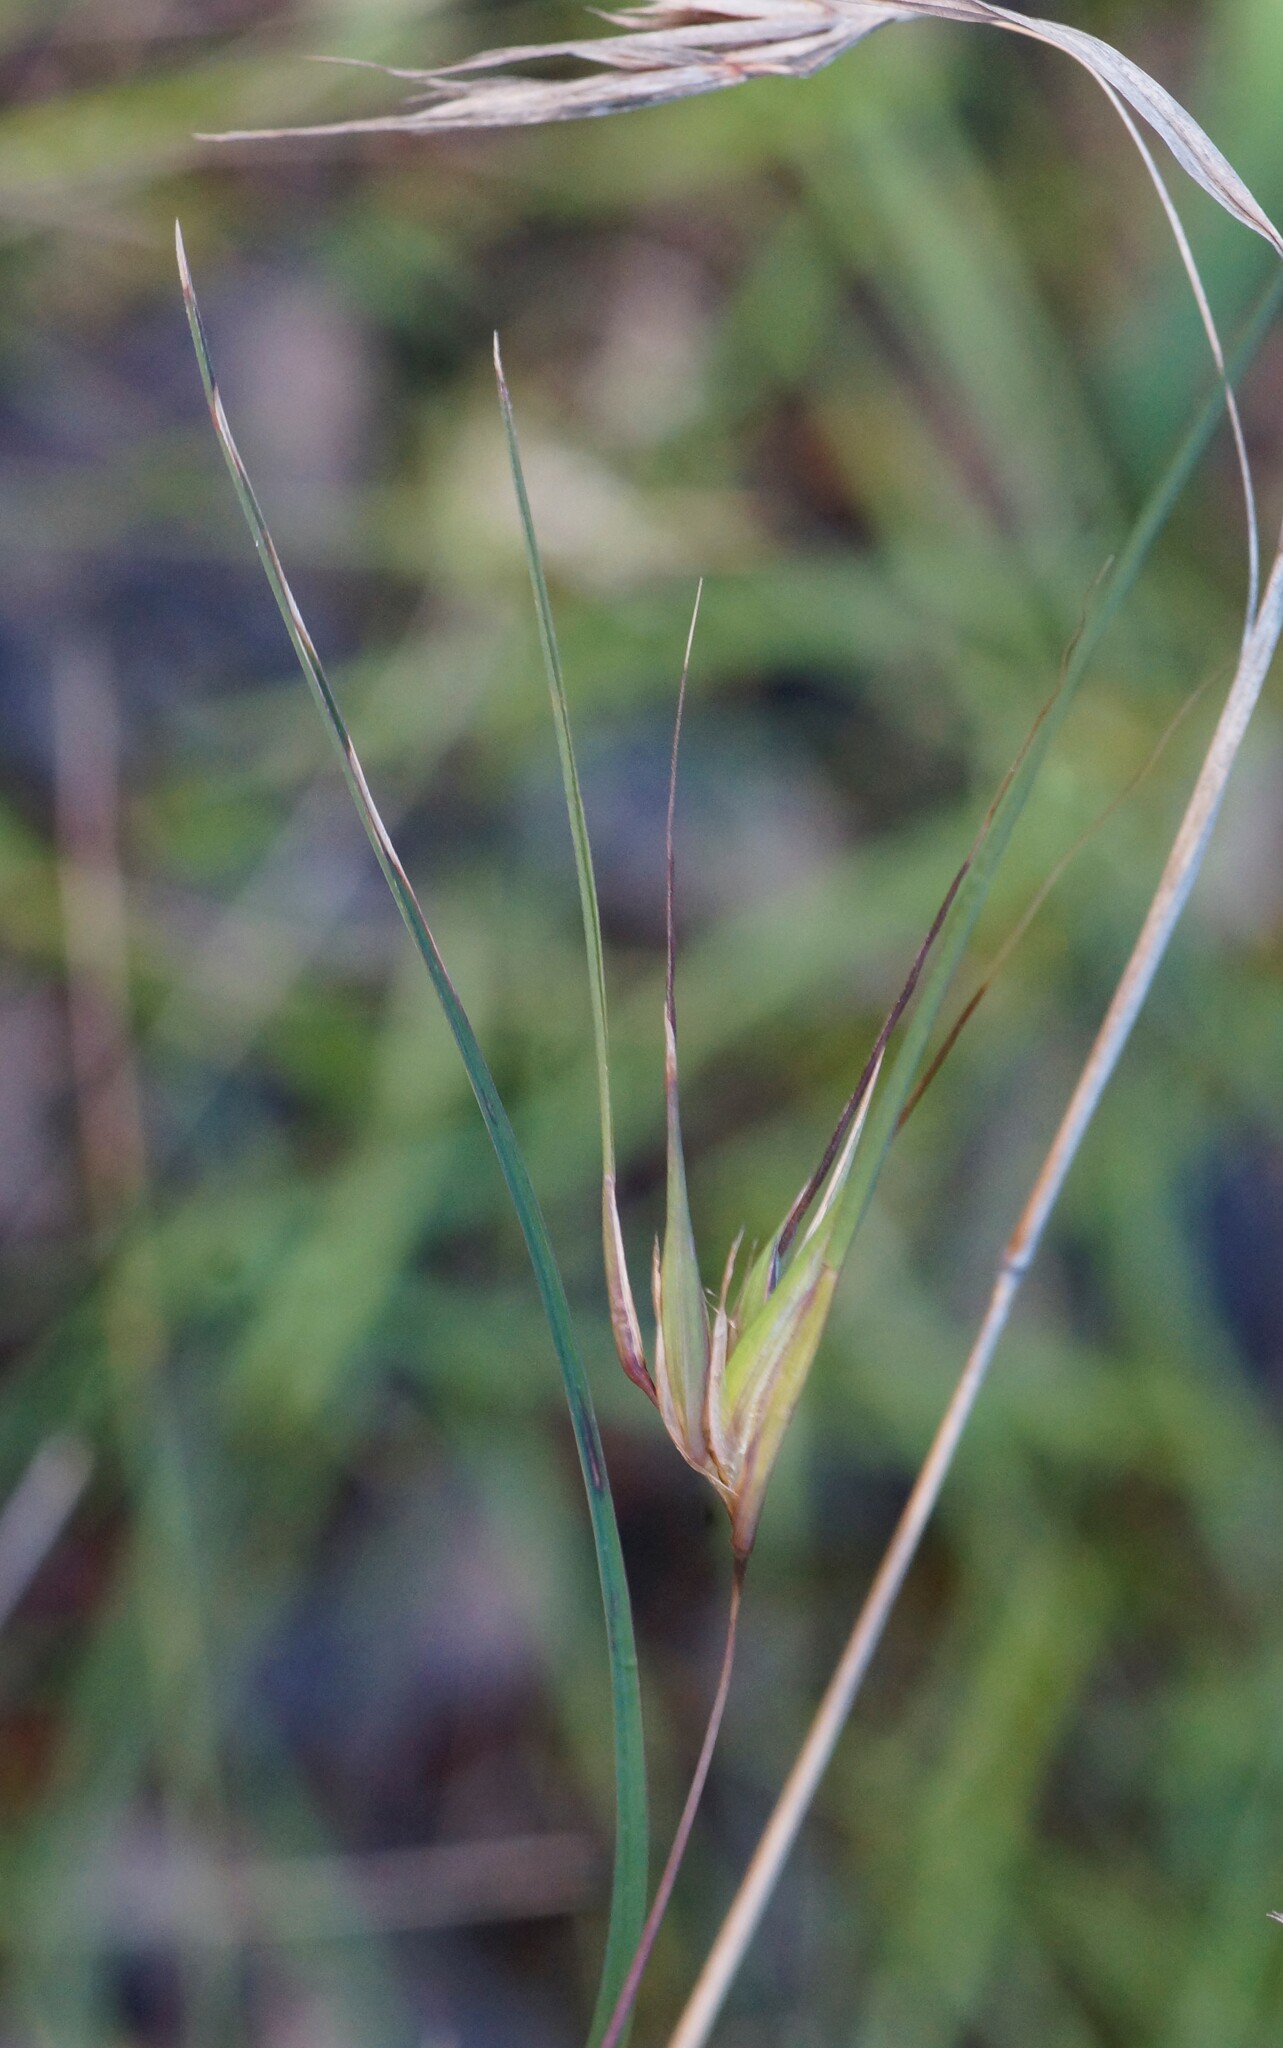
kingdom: Plantae
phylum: Tracheophyta
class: Liliopsida
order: Poales
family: Poaceae
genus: Themeda
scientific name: Themeda triandra
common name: Kangaroo grass
